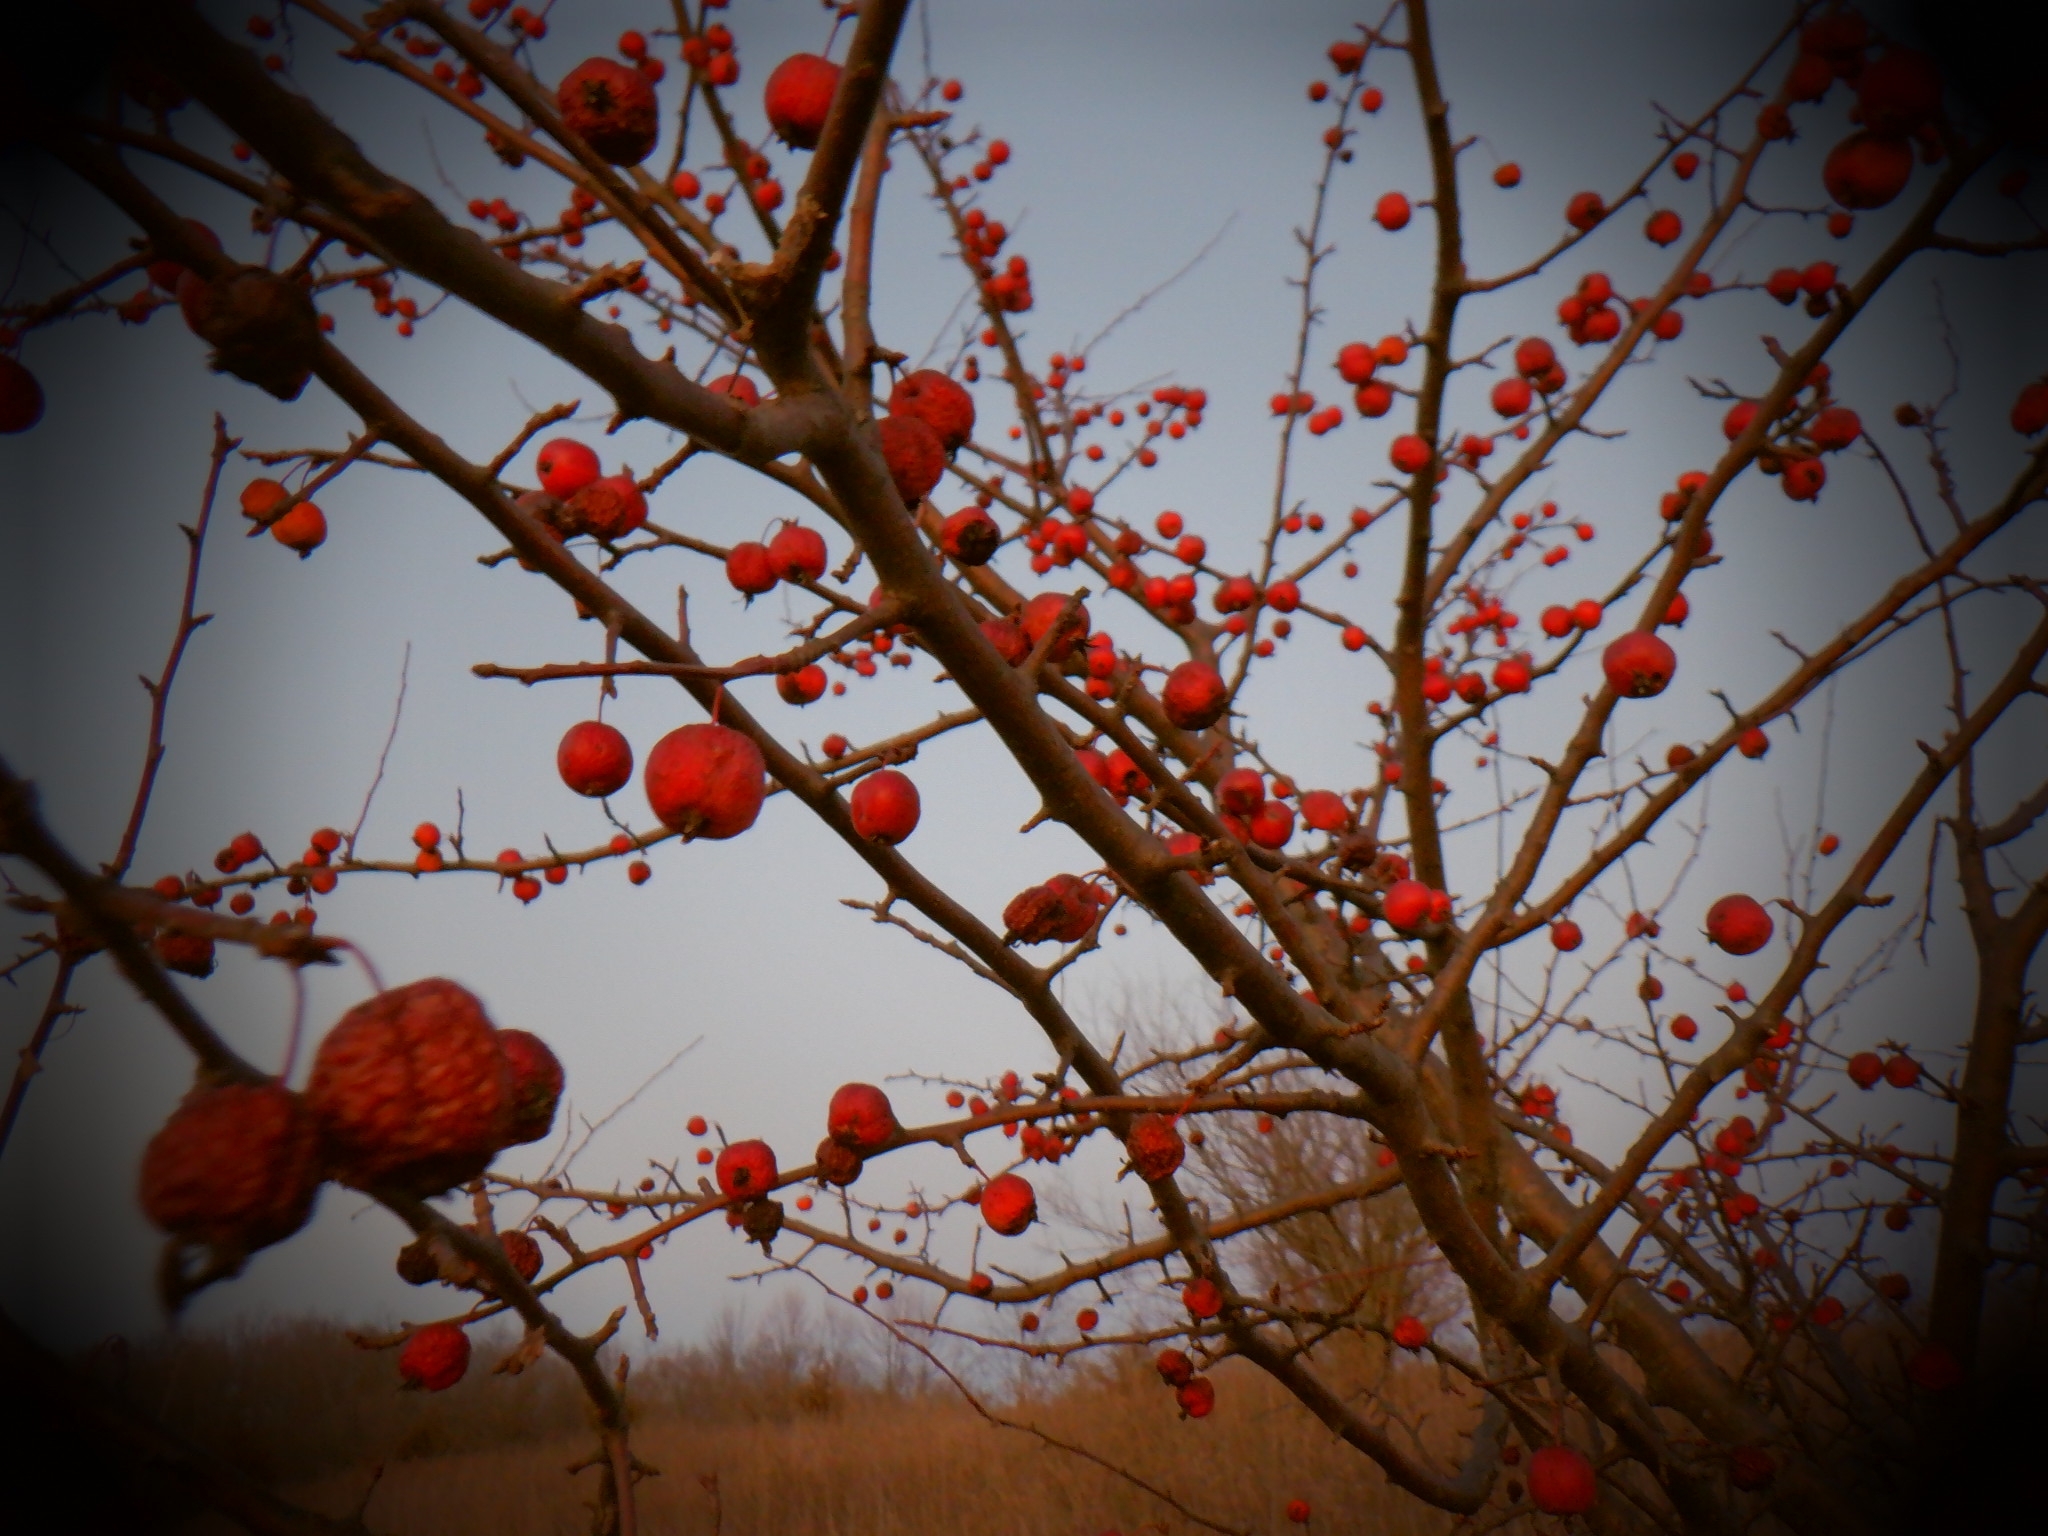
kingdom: Plantae
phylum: Tracheophyta
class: Magnoliopsida
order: Aquifoliales
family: Aquifoliaceae
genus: Ilex
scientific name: Ilex verticillata
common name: Virginia winterberry
